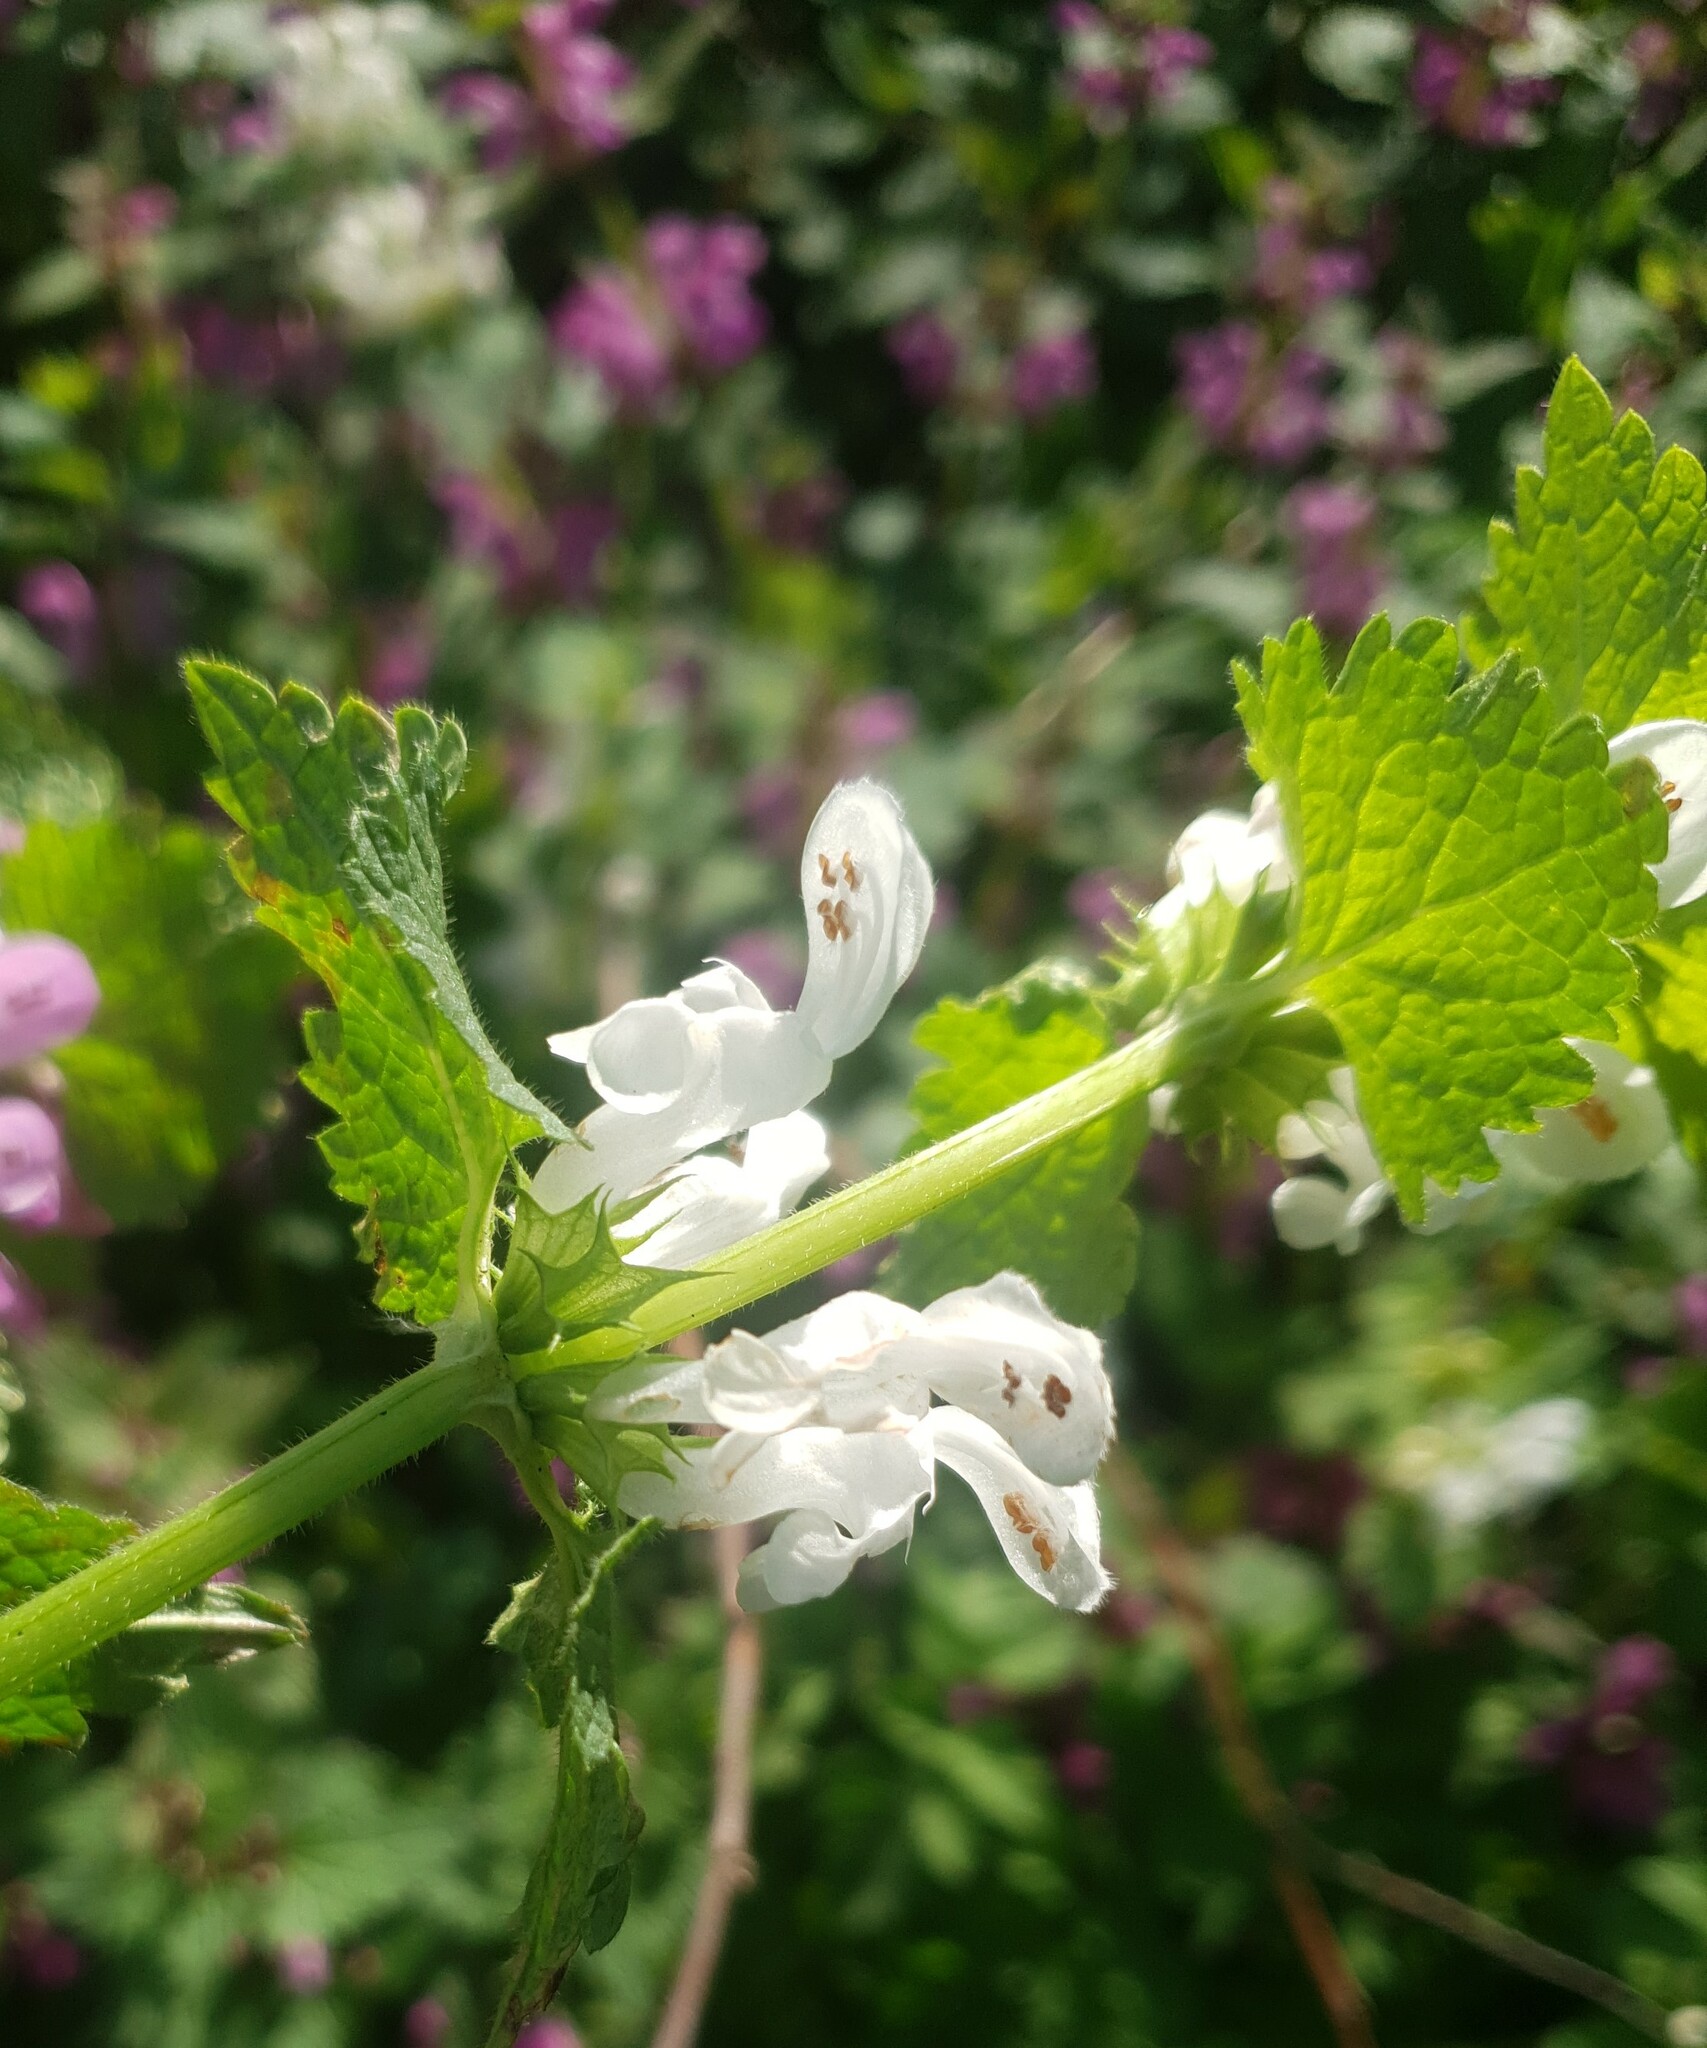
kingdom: Plantae
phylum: Tracheophyta
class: Magnoliopsida
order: Lamiales
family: Lamiaceae
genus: Lamium
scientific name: Lamium maculatum
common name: Spotted dead-nettle
